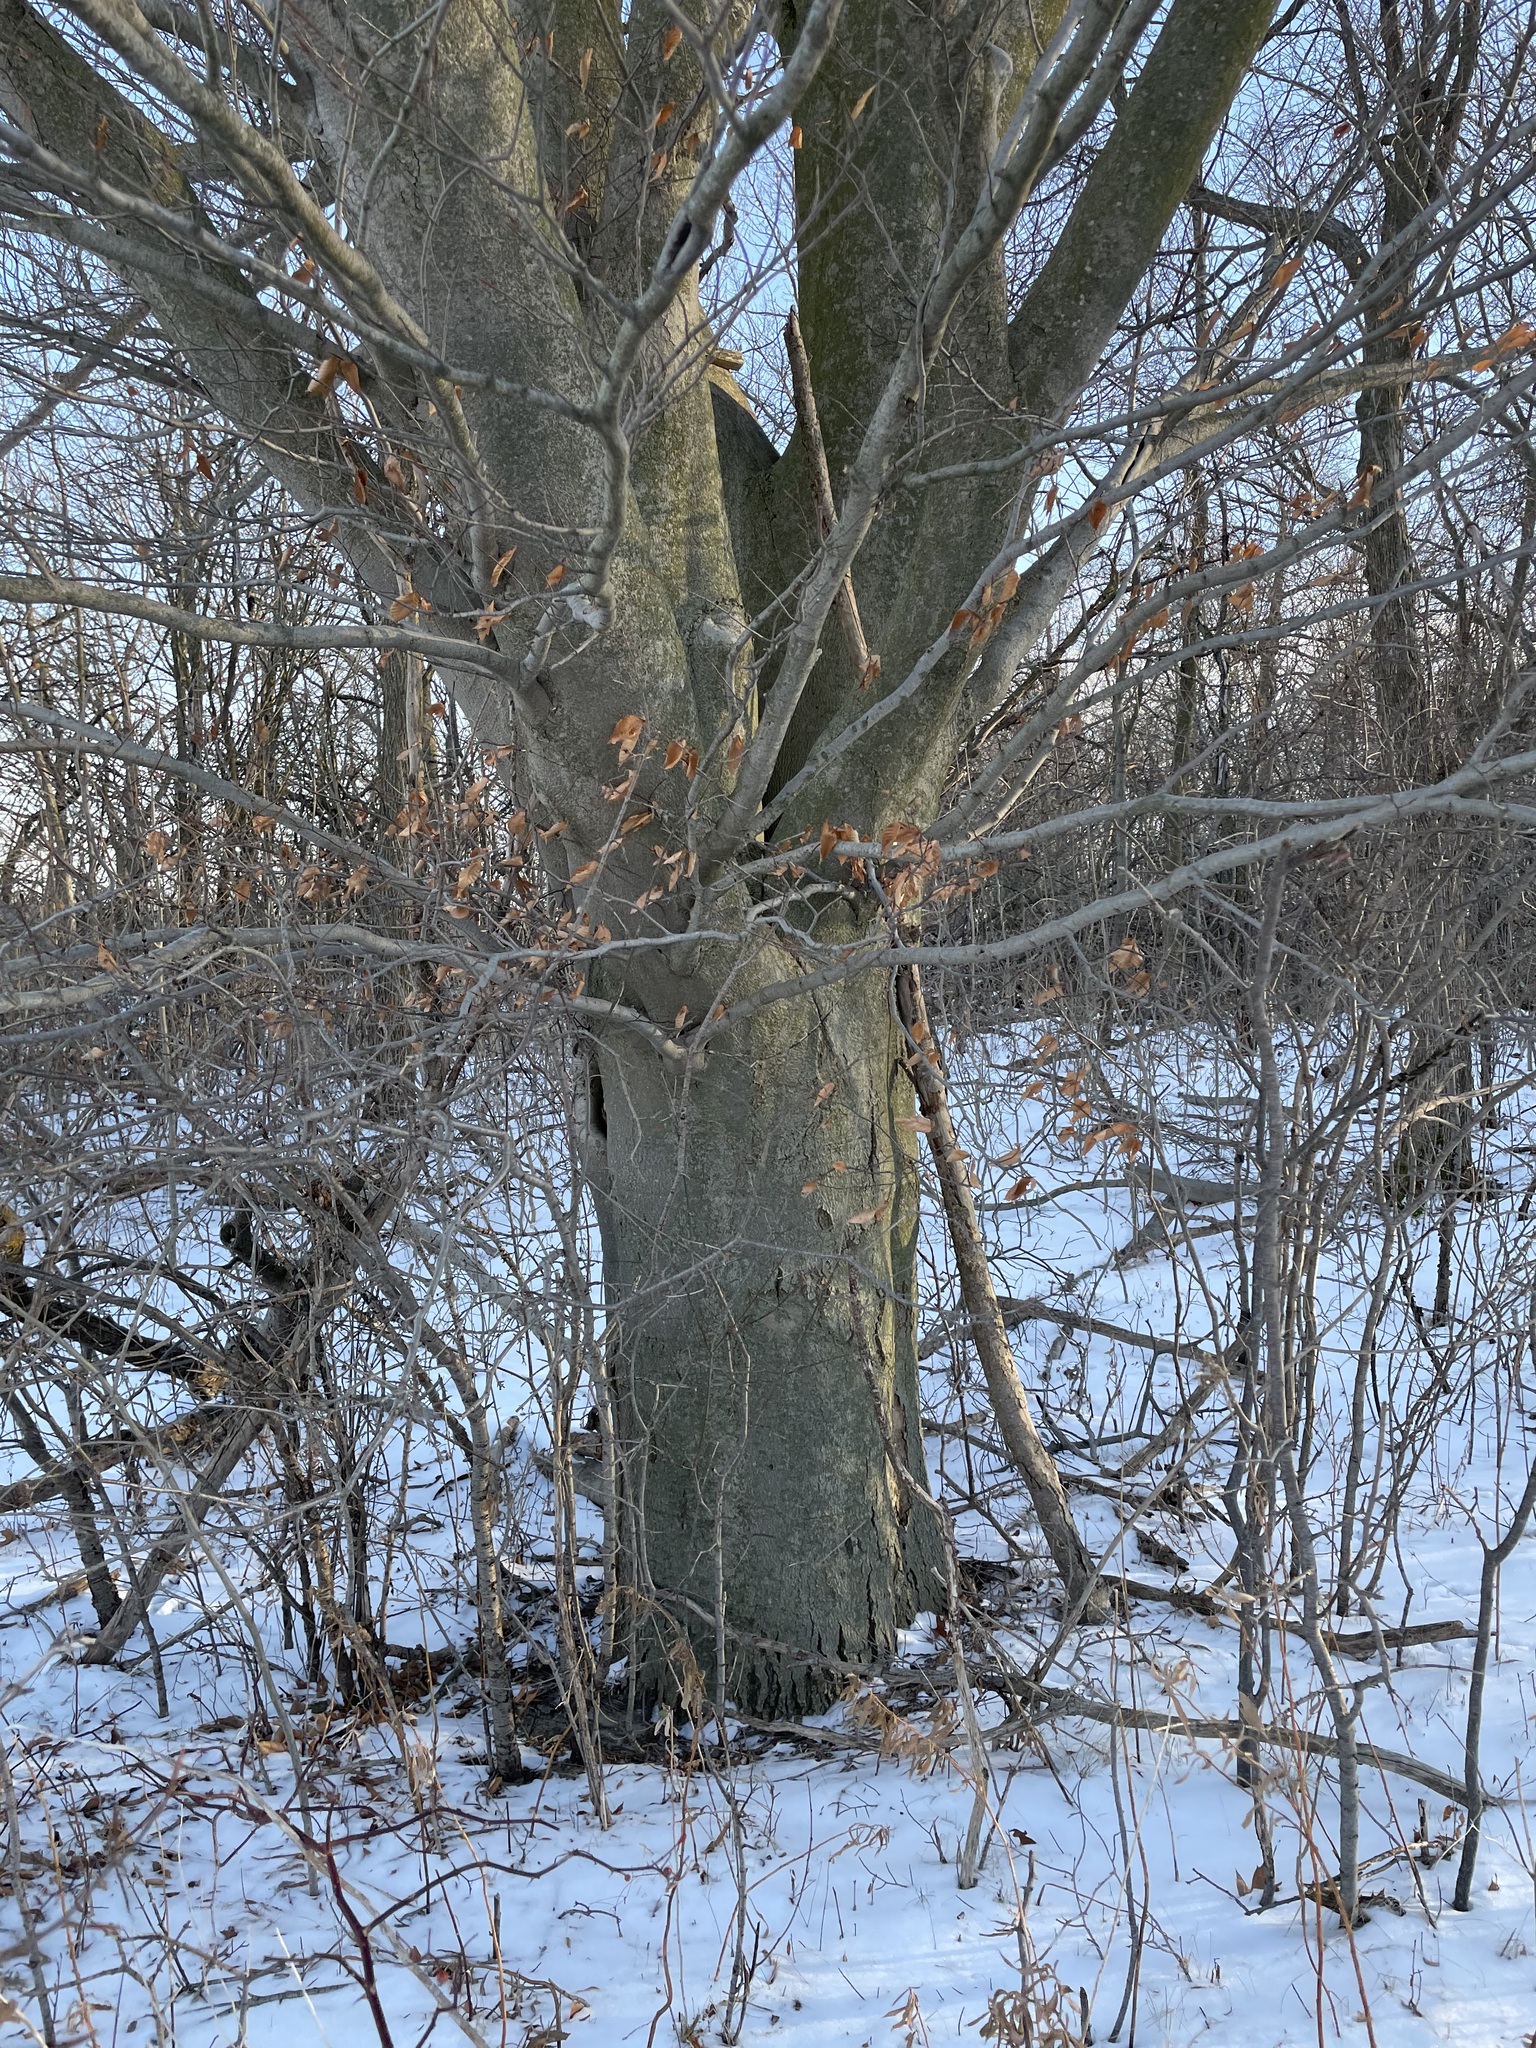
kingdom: Plantae
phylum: Tracheophyta
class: Magnoliopsida
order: Fagales
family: Fagaceae
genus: Fagus
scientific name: Fagus grandifolia
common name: American beech
